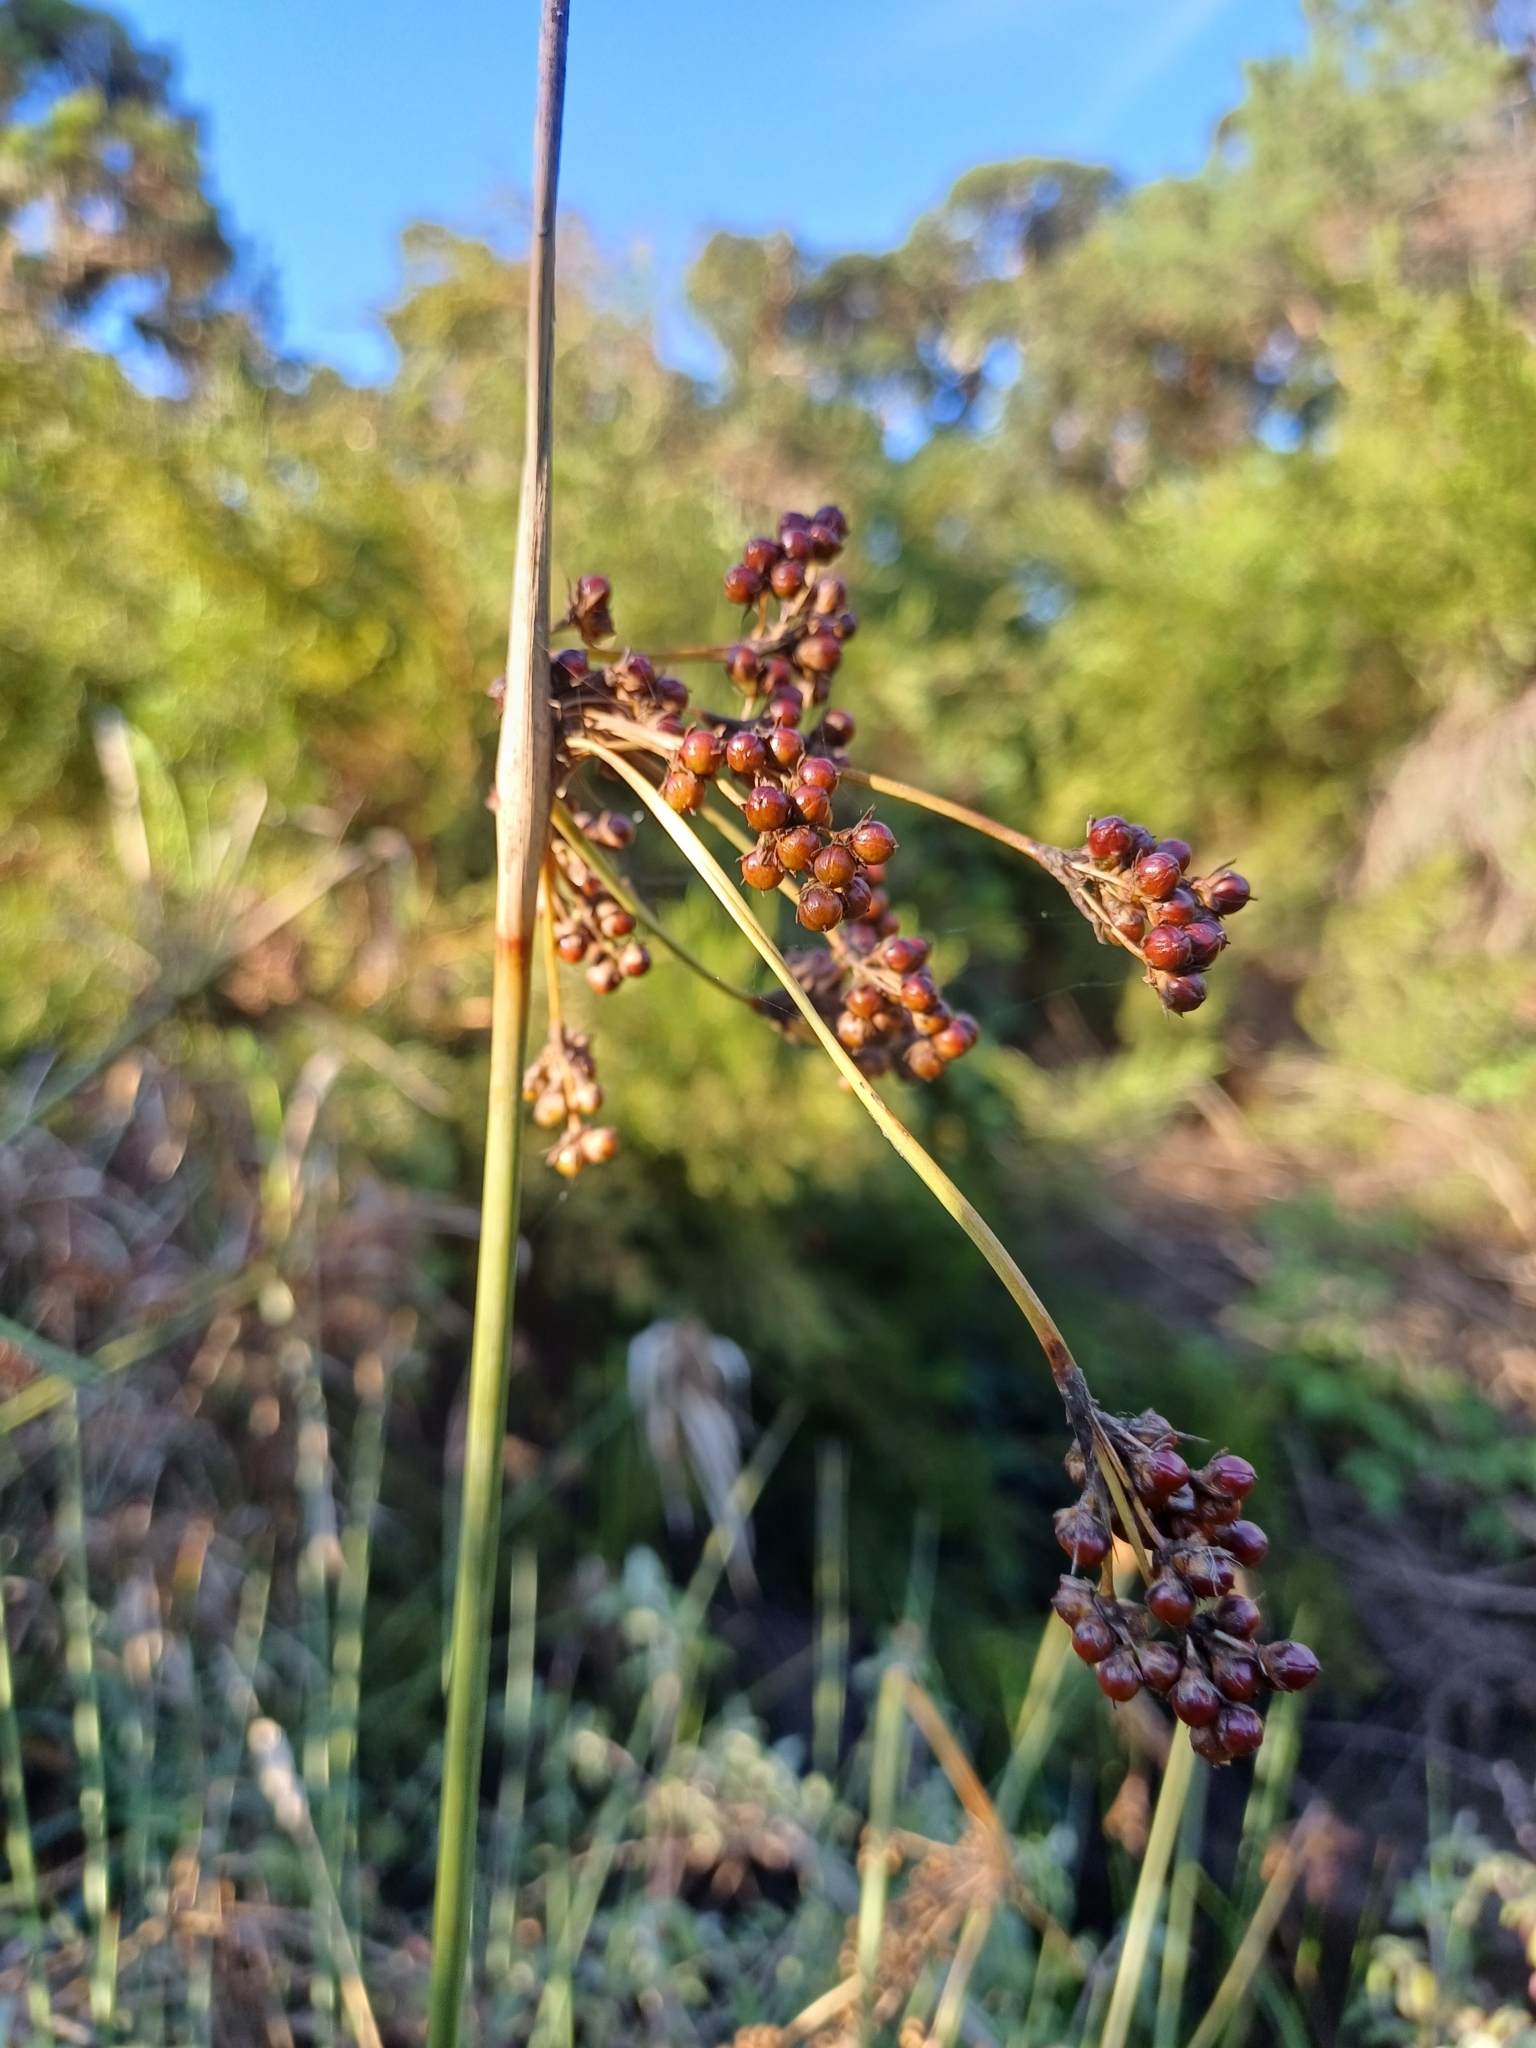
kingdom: Plantae
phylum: Tracheophyta
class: Liliopsida
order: Poales
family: Juncaceae
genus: Juncus
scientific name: Juncus acutus
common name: Sharp rush
